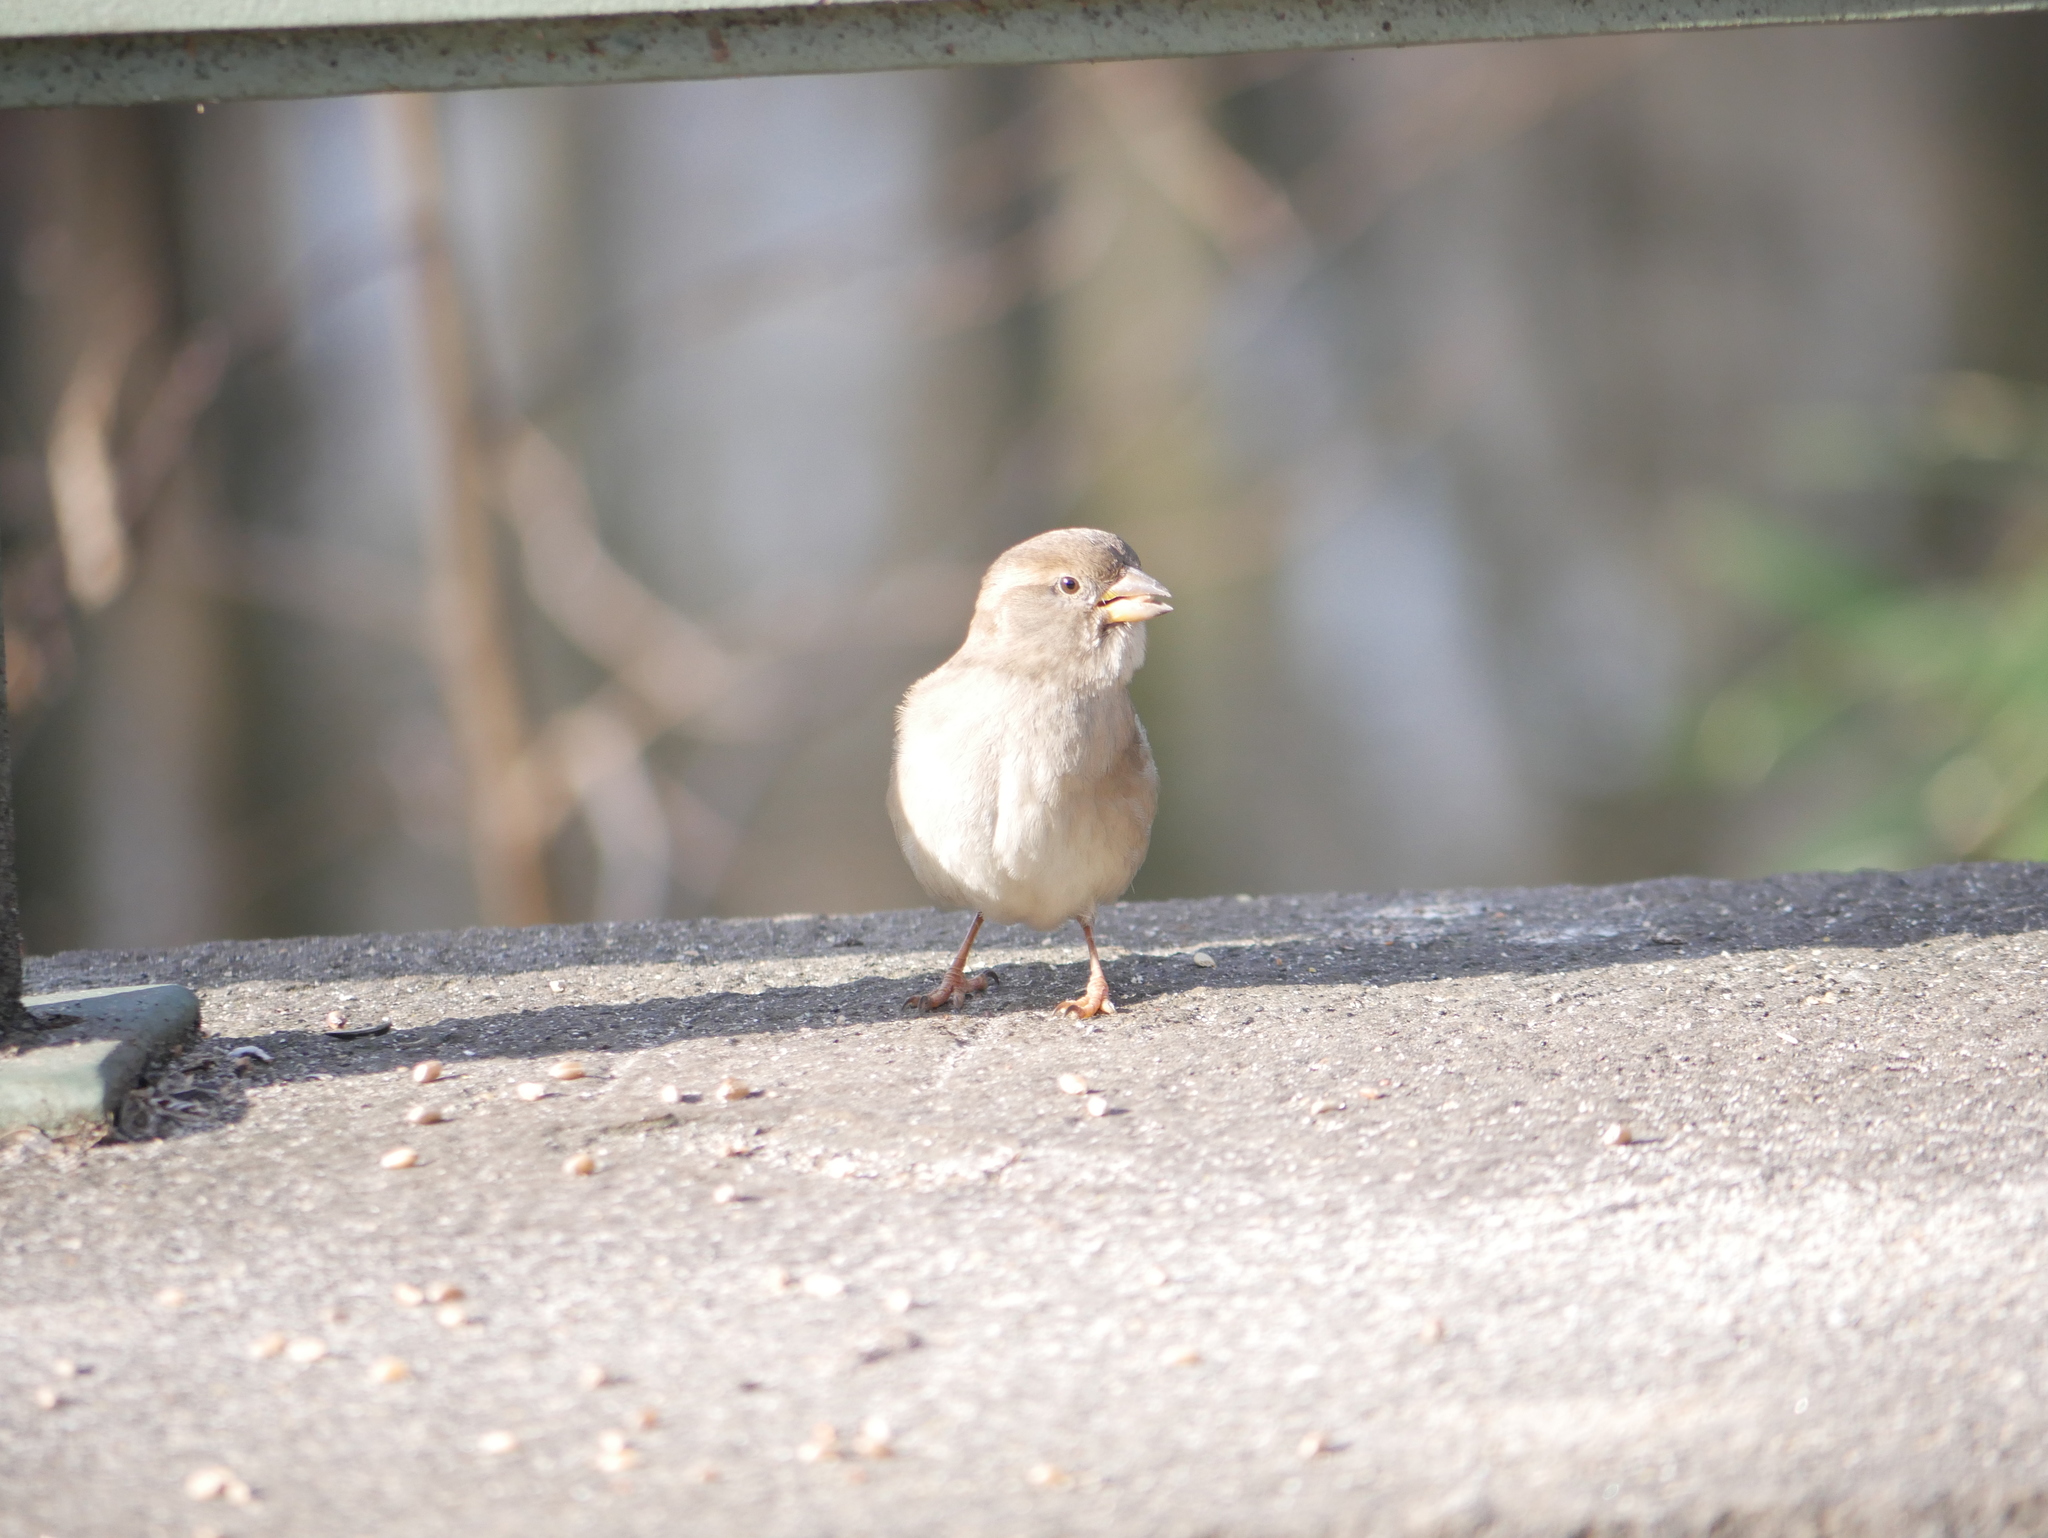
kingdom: Animalia
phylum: Chordata
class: Aves
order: Passeriformes
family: Passeridae
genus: Passer
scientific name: Passer domesticus
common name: House sparrow
